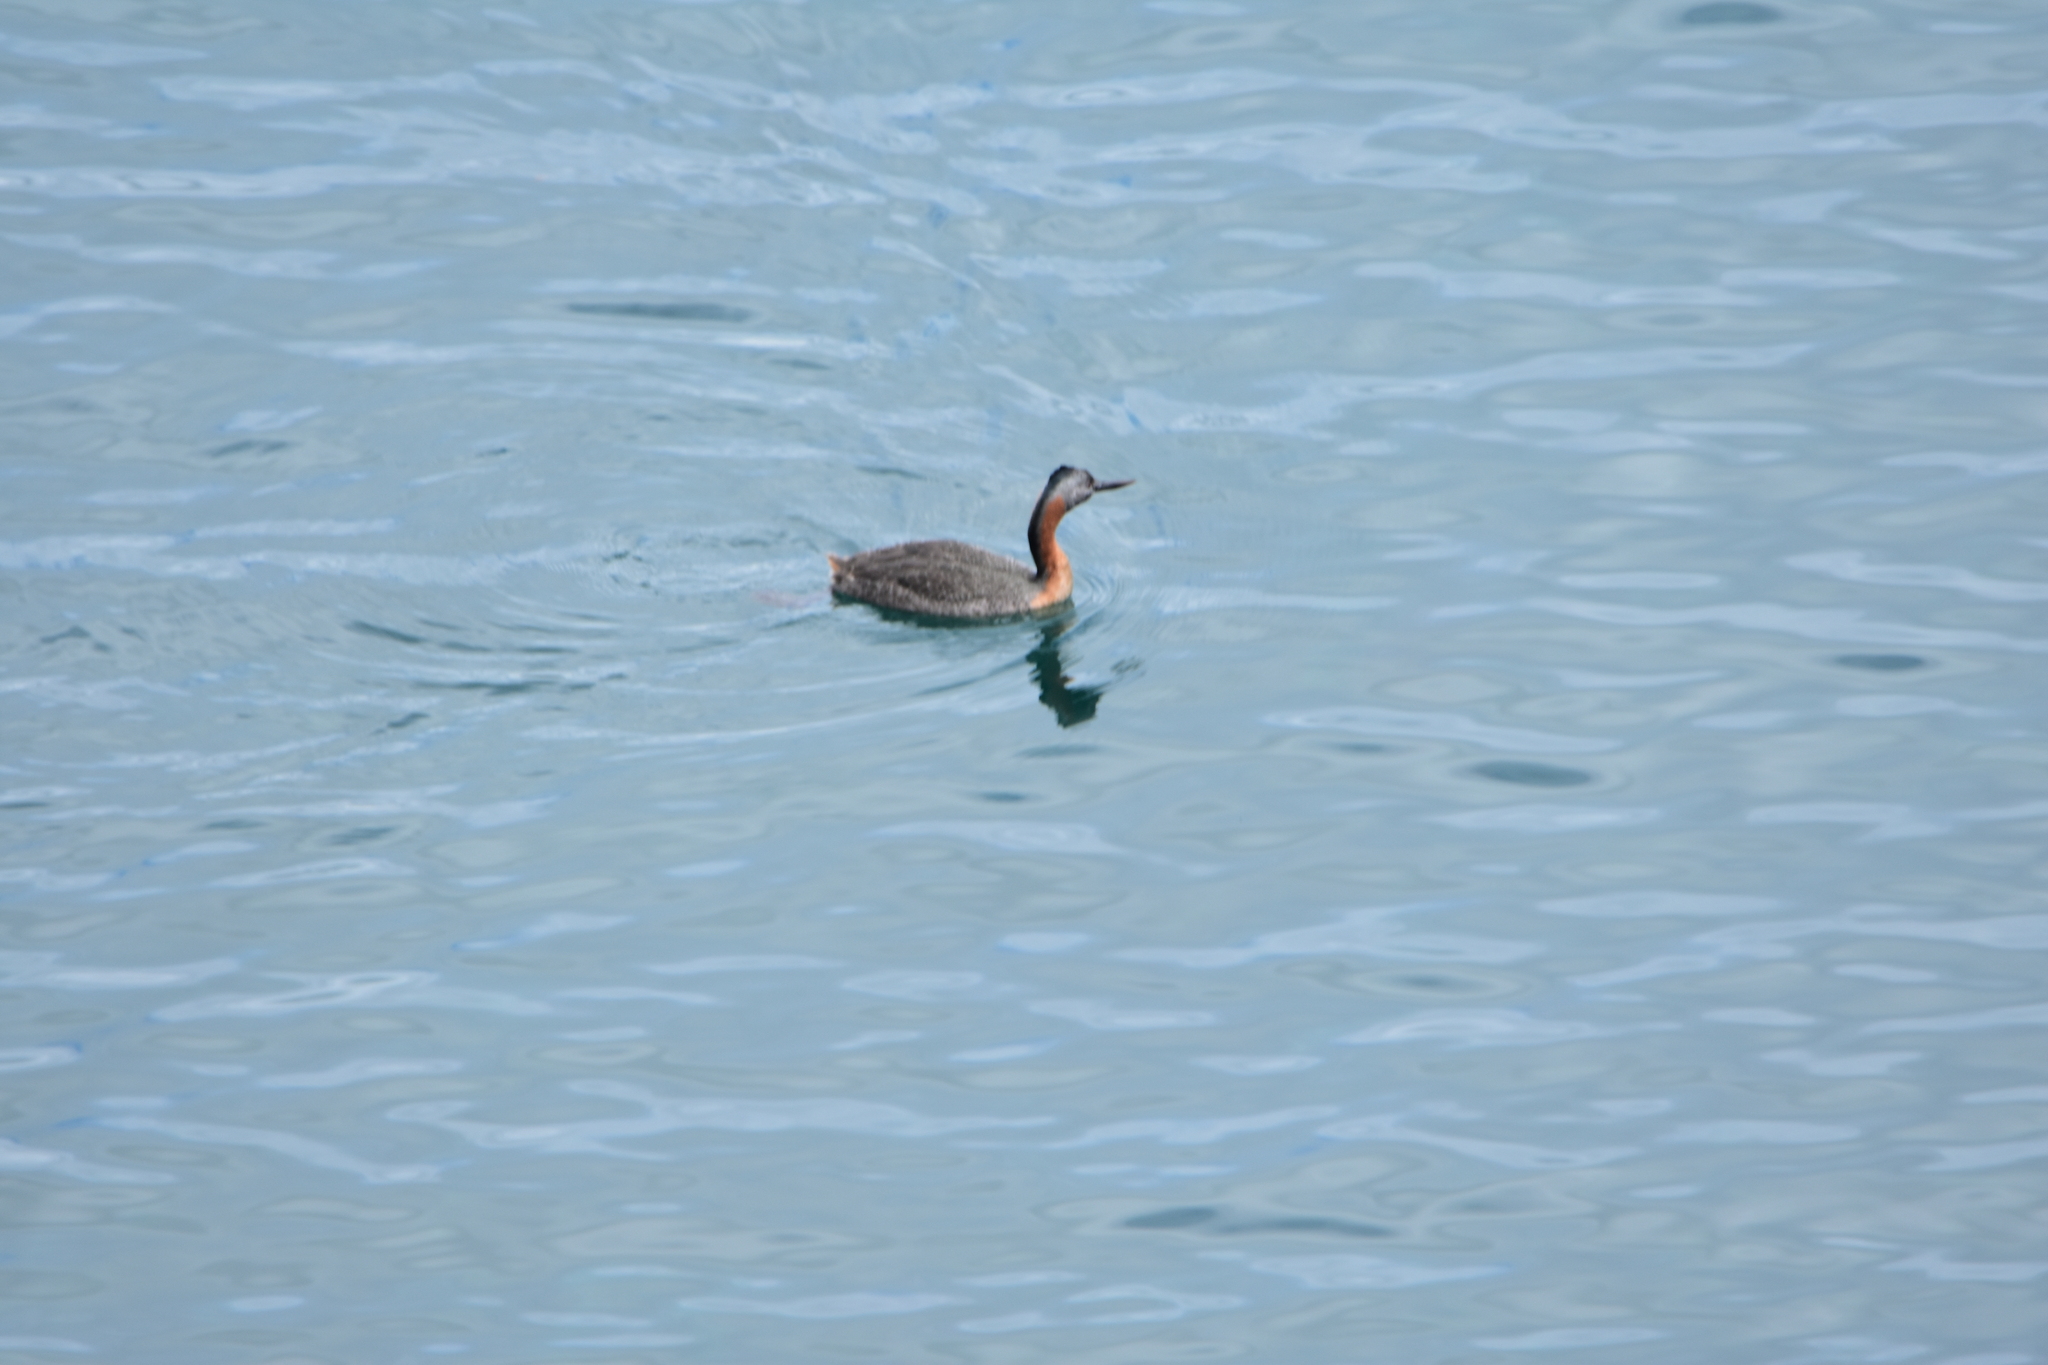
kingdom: Animalia
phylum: Chordata
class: Aves
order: Podicipediformes
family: Podicipedidae
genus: Podiceps
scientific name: Podiceps major
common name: Great grebe
